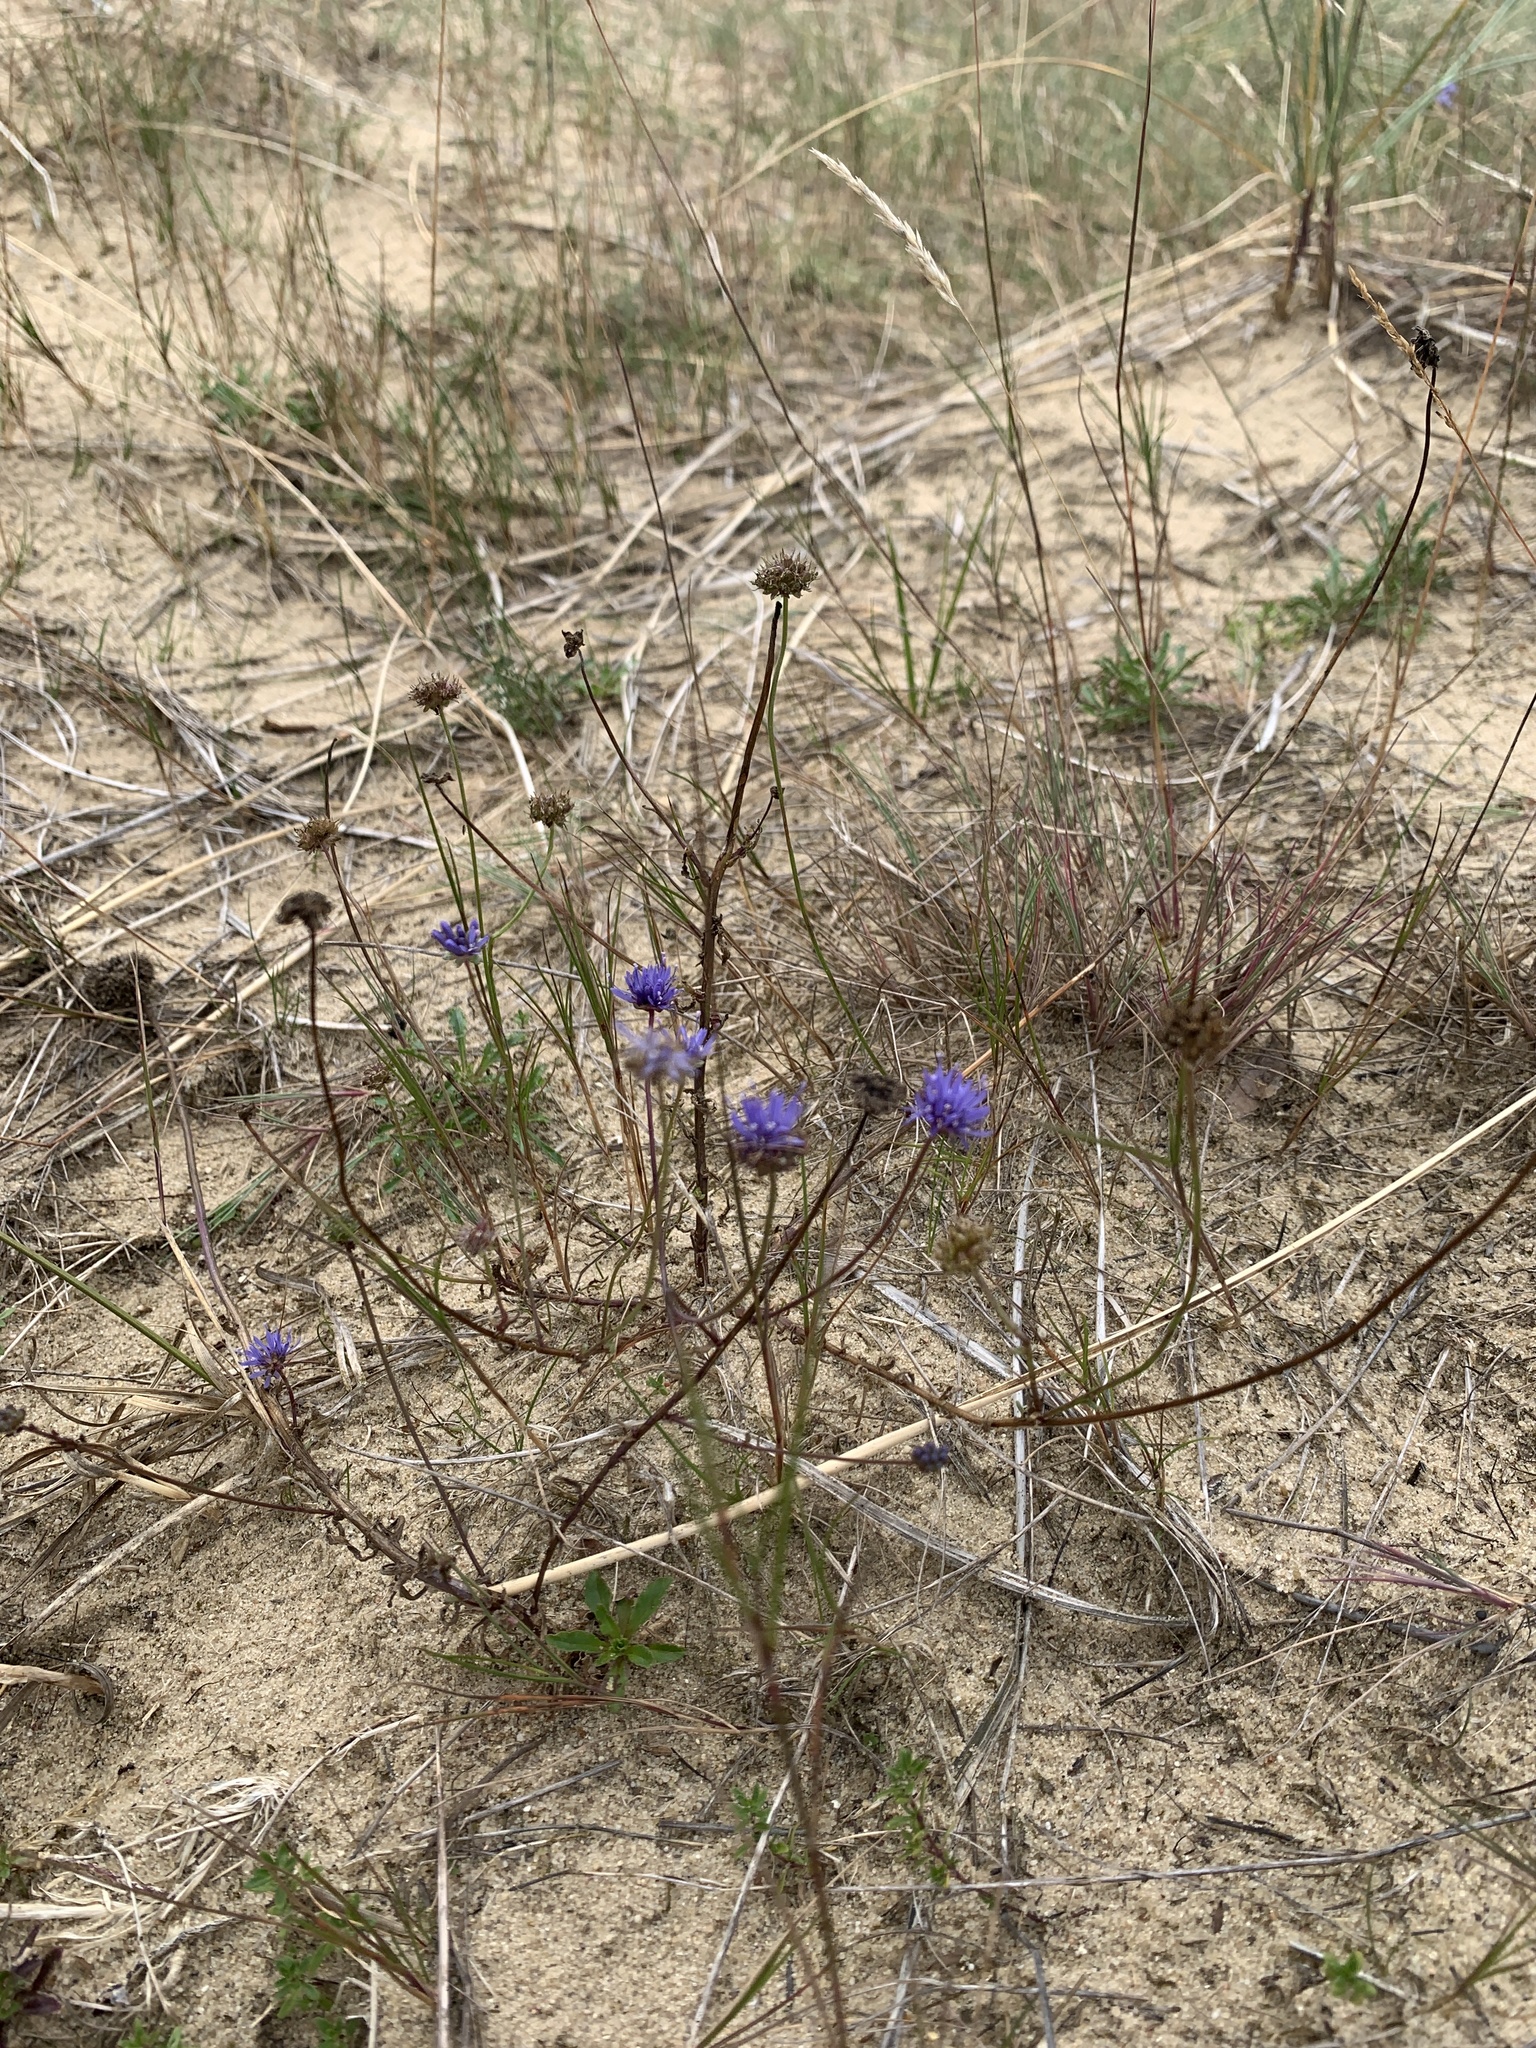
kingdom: Plantae
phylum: Tracheophyta
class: Magnoliopsida
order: Asterales
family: Campanulaceae
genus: Jasione
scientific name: Jasione montana
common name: Sheep's-bit
